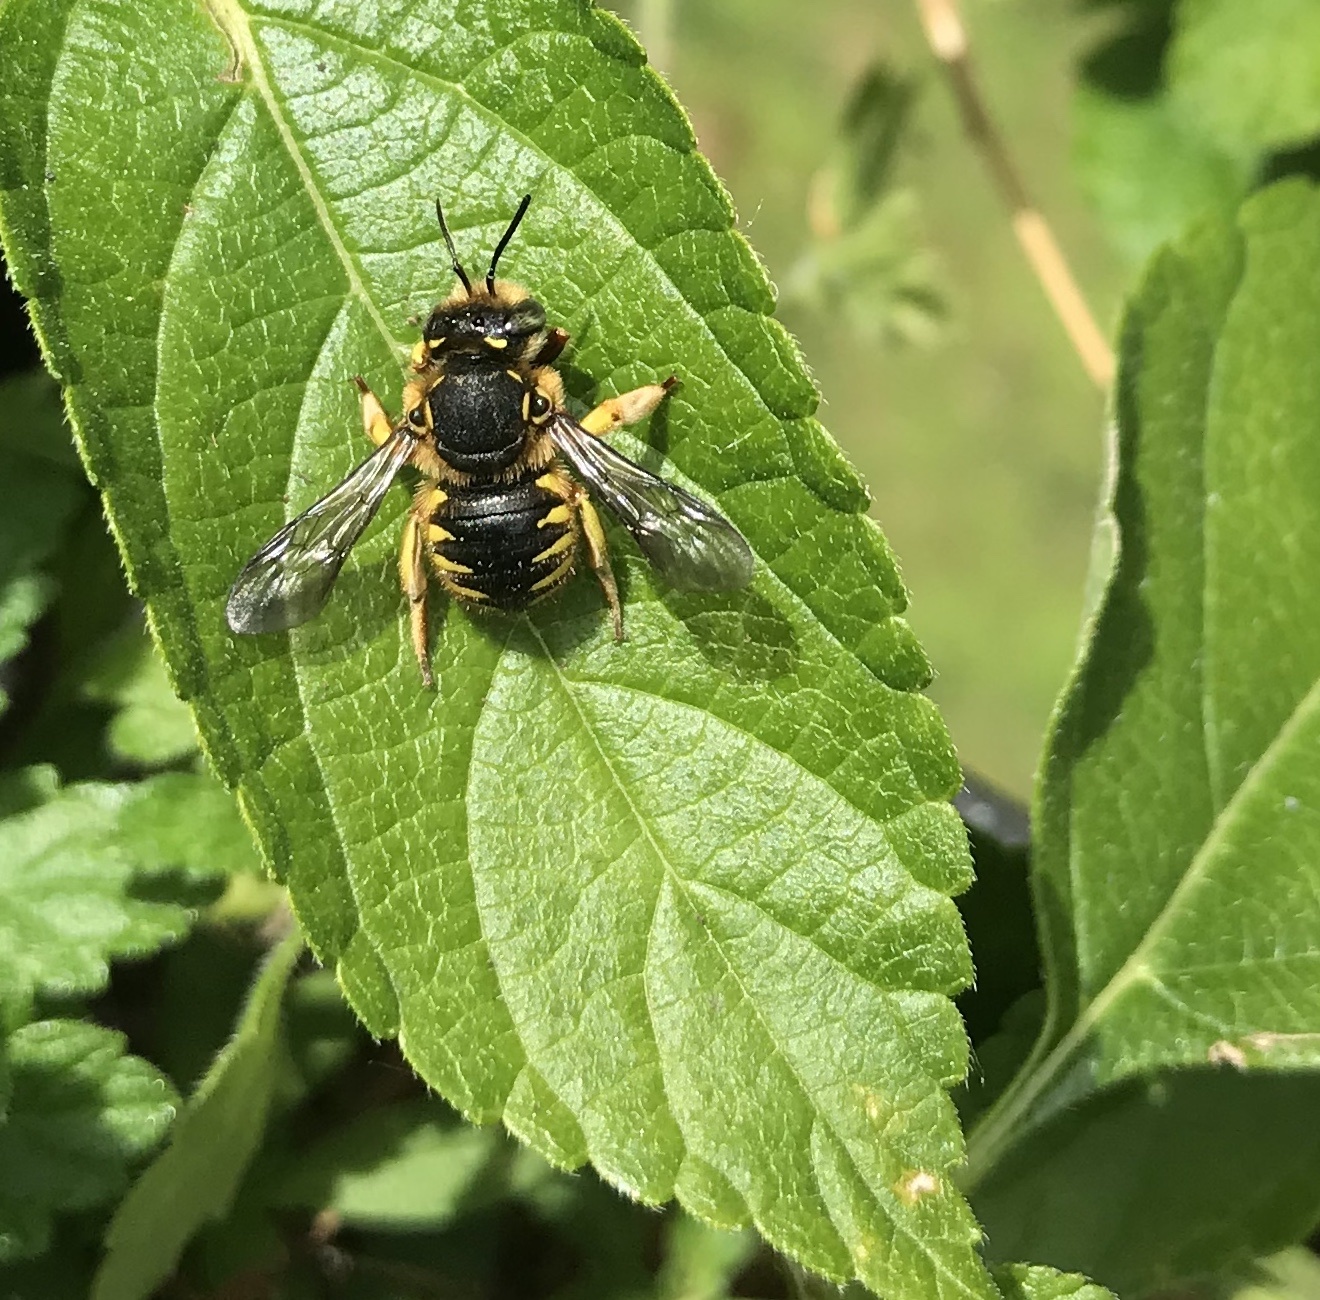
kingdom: Animalia
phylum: Arthropoda
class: Insecta
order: Hymenoptera
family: Megachilidae
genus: Anthidium
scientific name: Anthidium manicatum
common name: Wool carder bee
